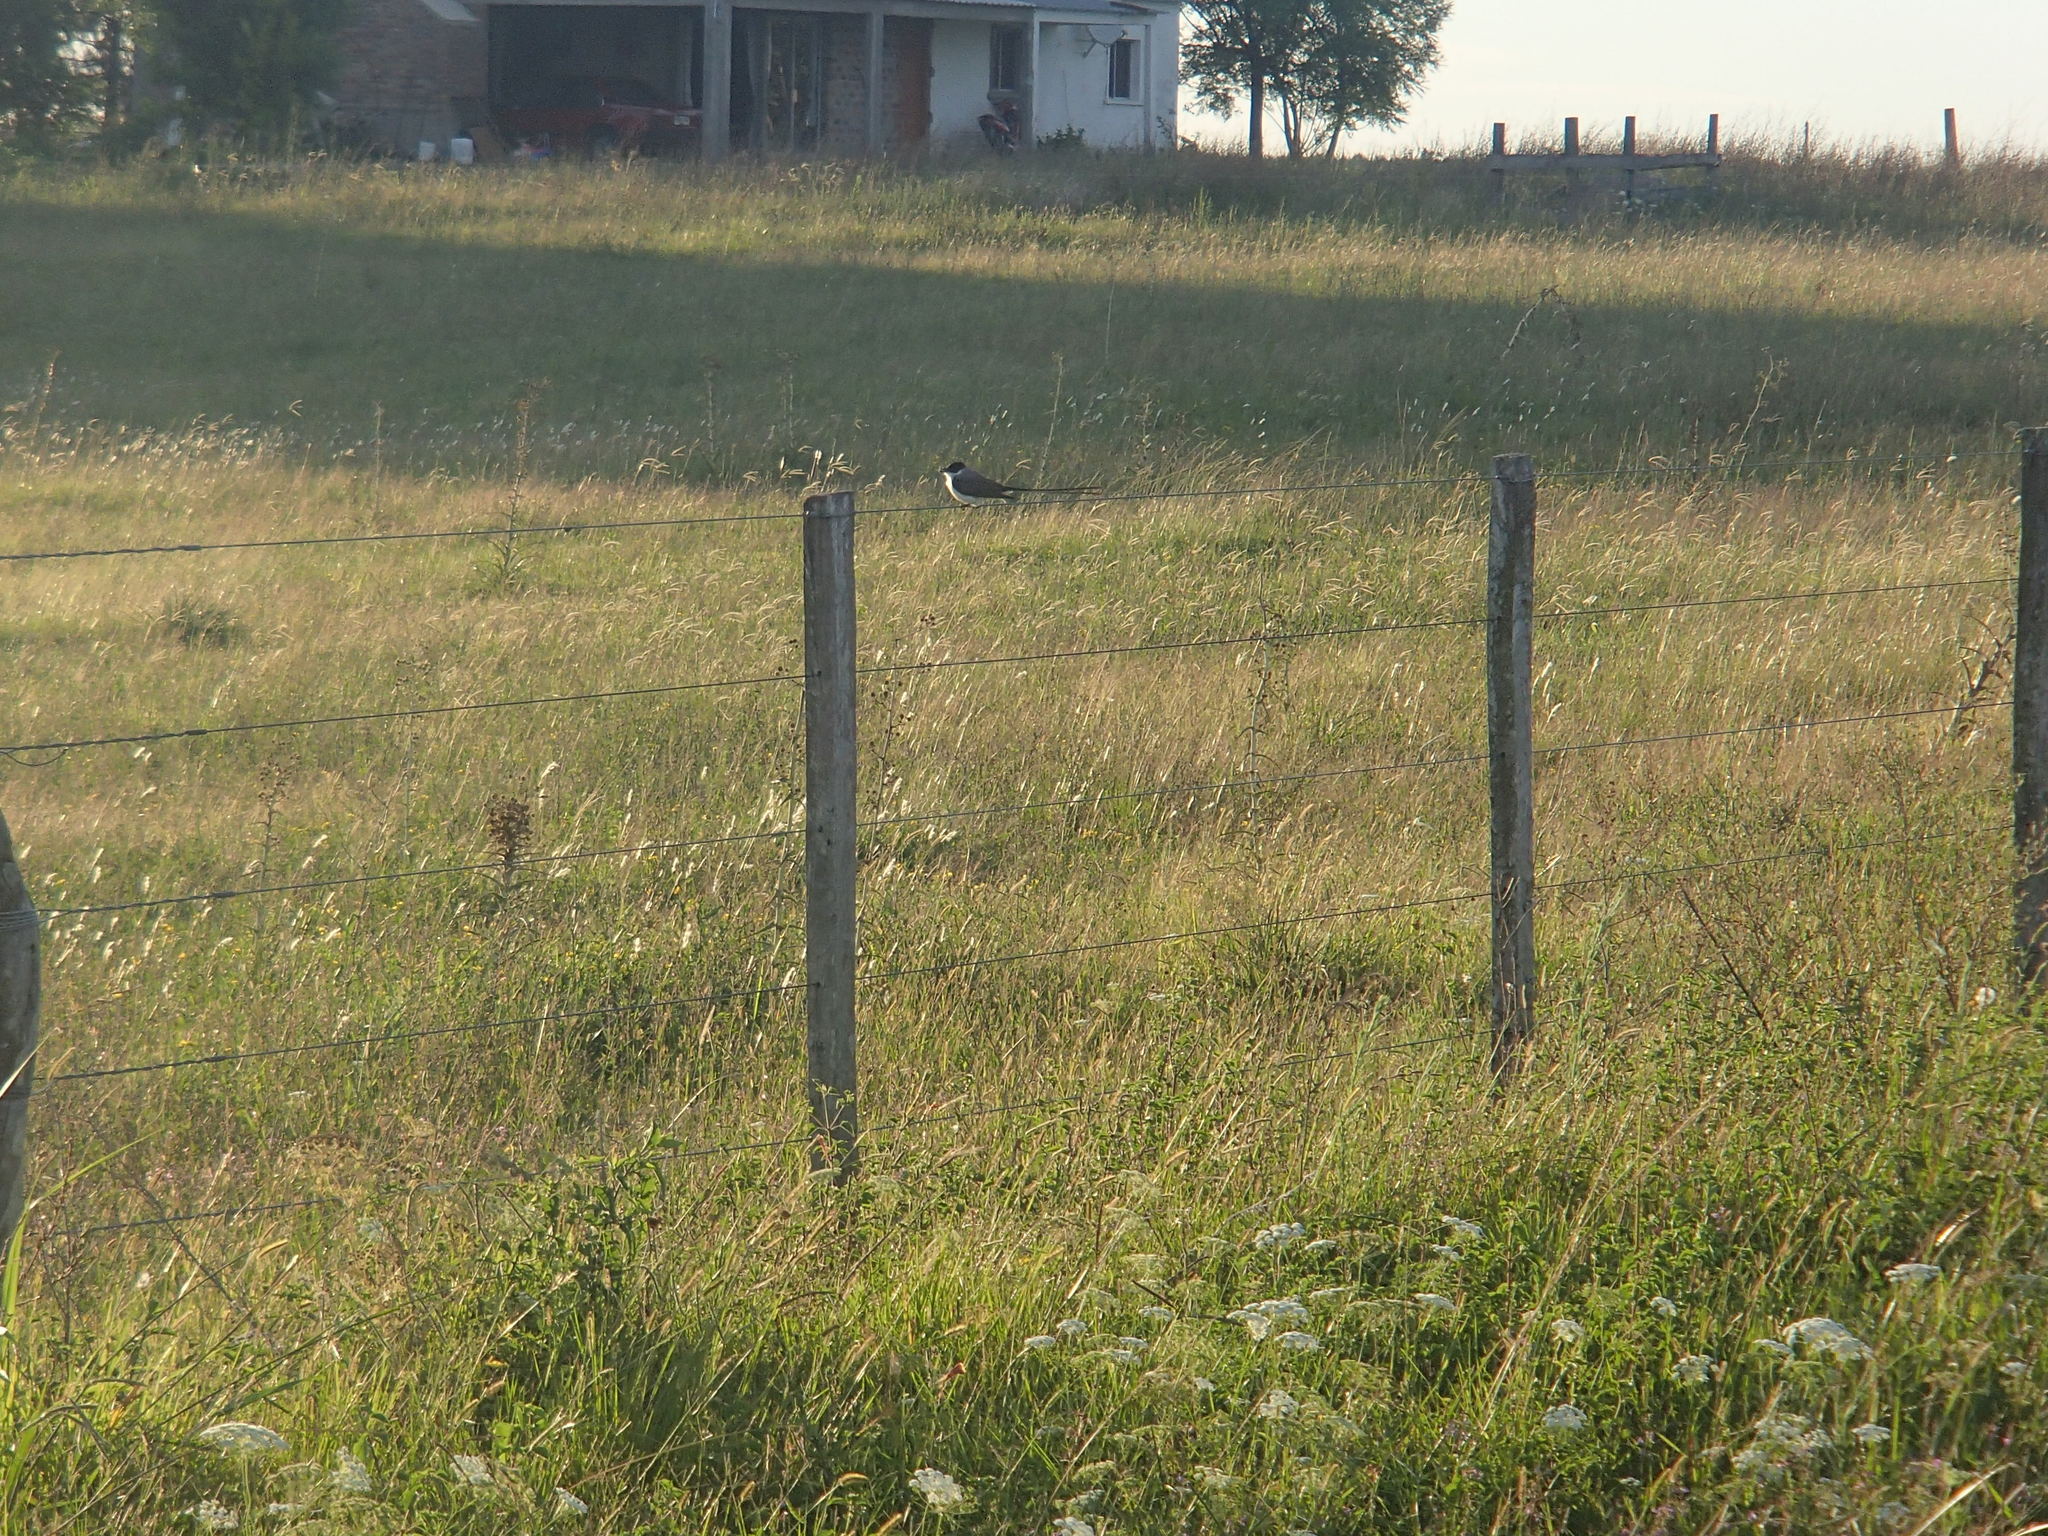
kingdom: Animalia
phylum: Chordata
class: Aves
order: Passeriformes
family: Tyrannidae
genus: Tyrannus
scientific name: Tyrannus savana
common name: Fork-tailed flycatcher
